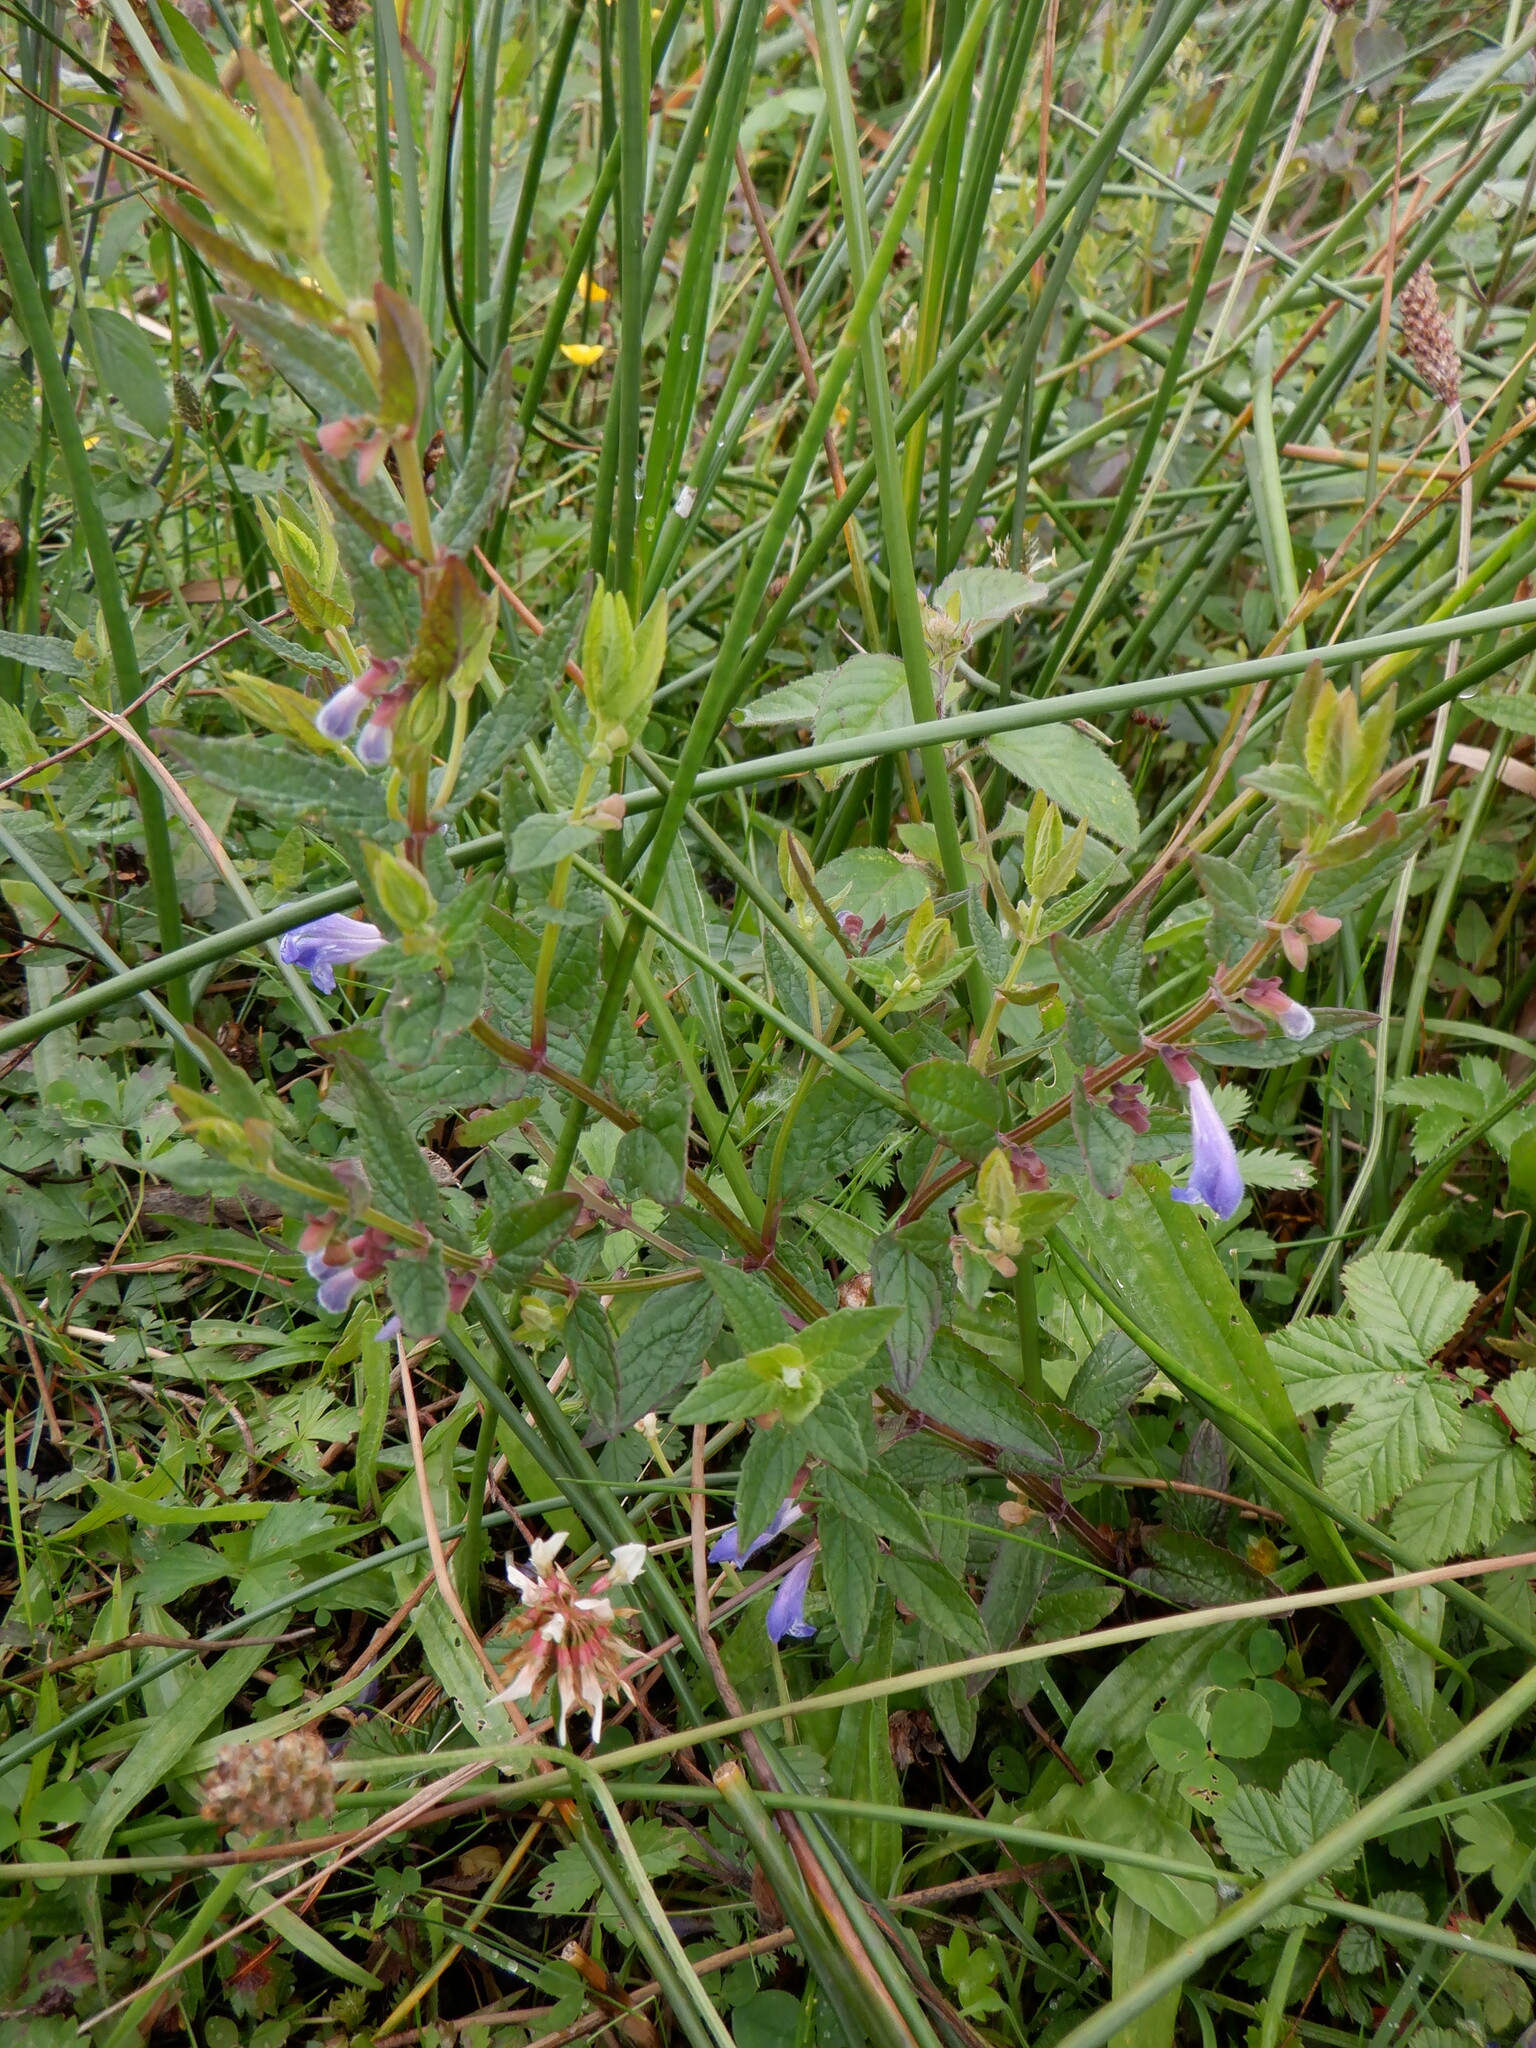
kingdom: Plantae
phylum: Tracheophyta
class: Magnoliopsida
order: Lamiales
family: Lamiaceae
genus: Scutellaria
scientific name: Scutellaria galericulata
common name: Skullcap
